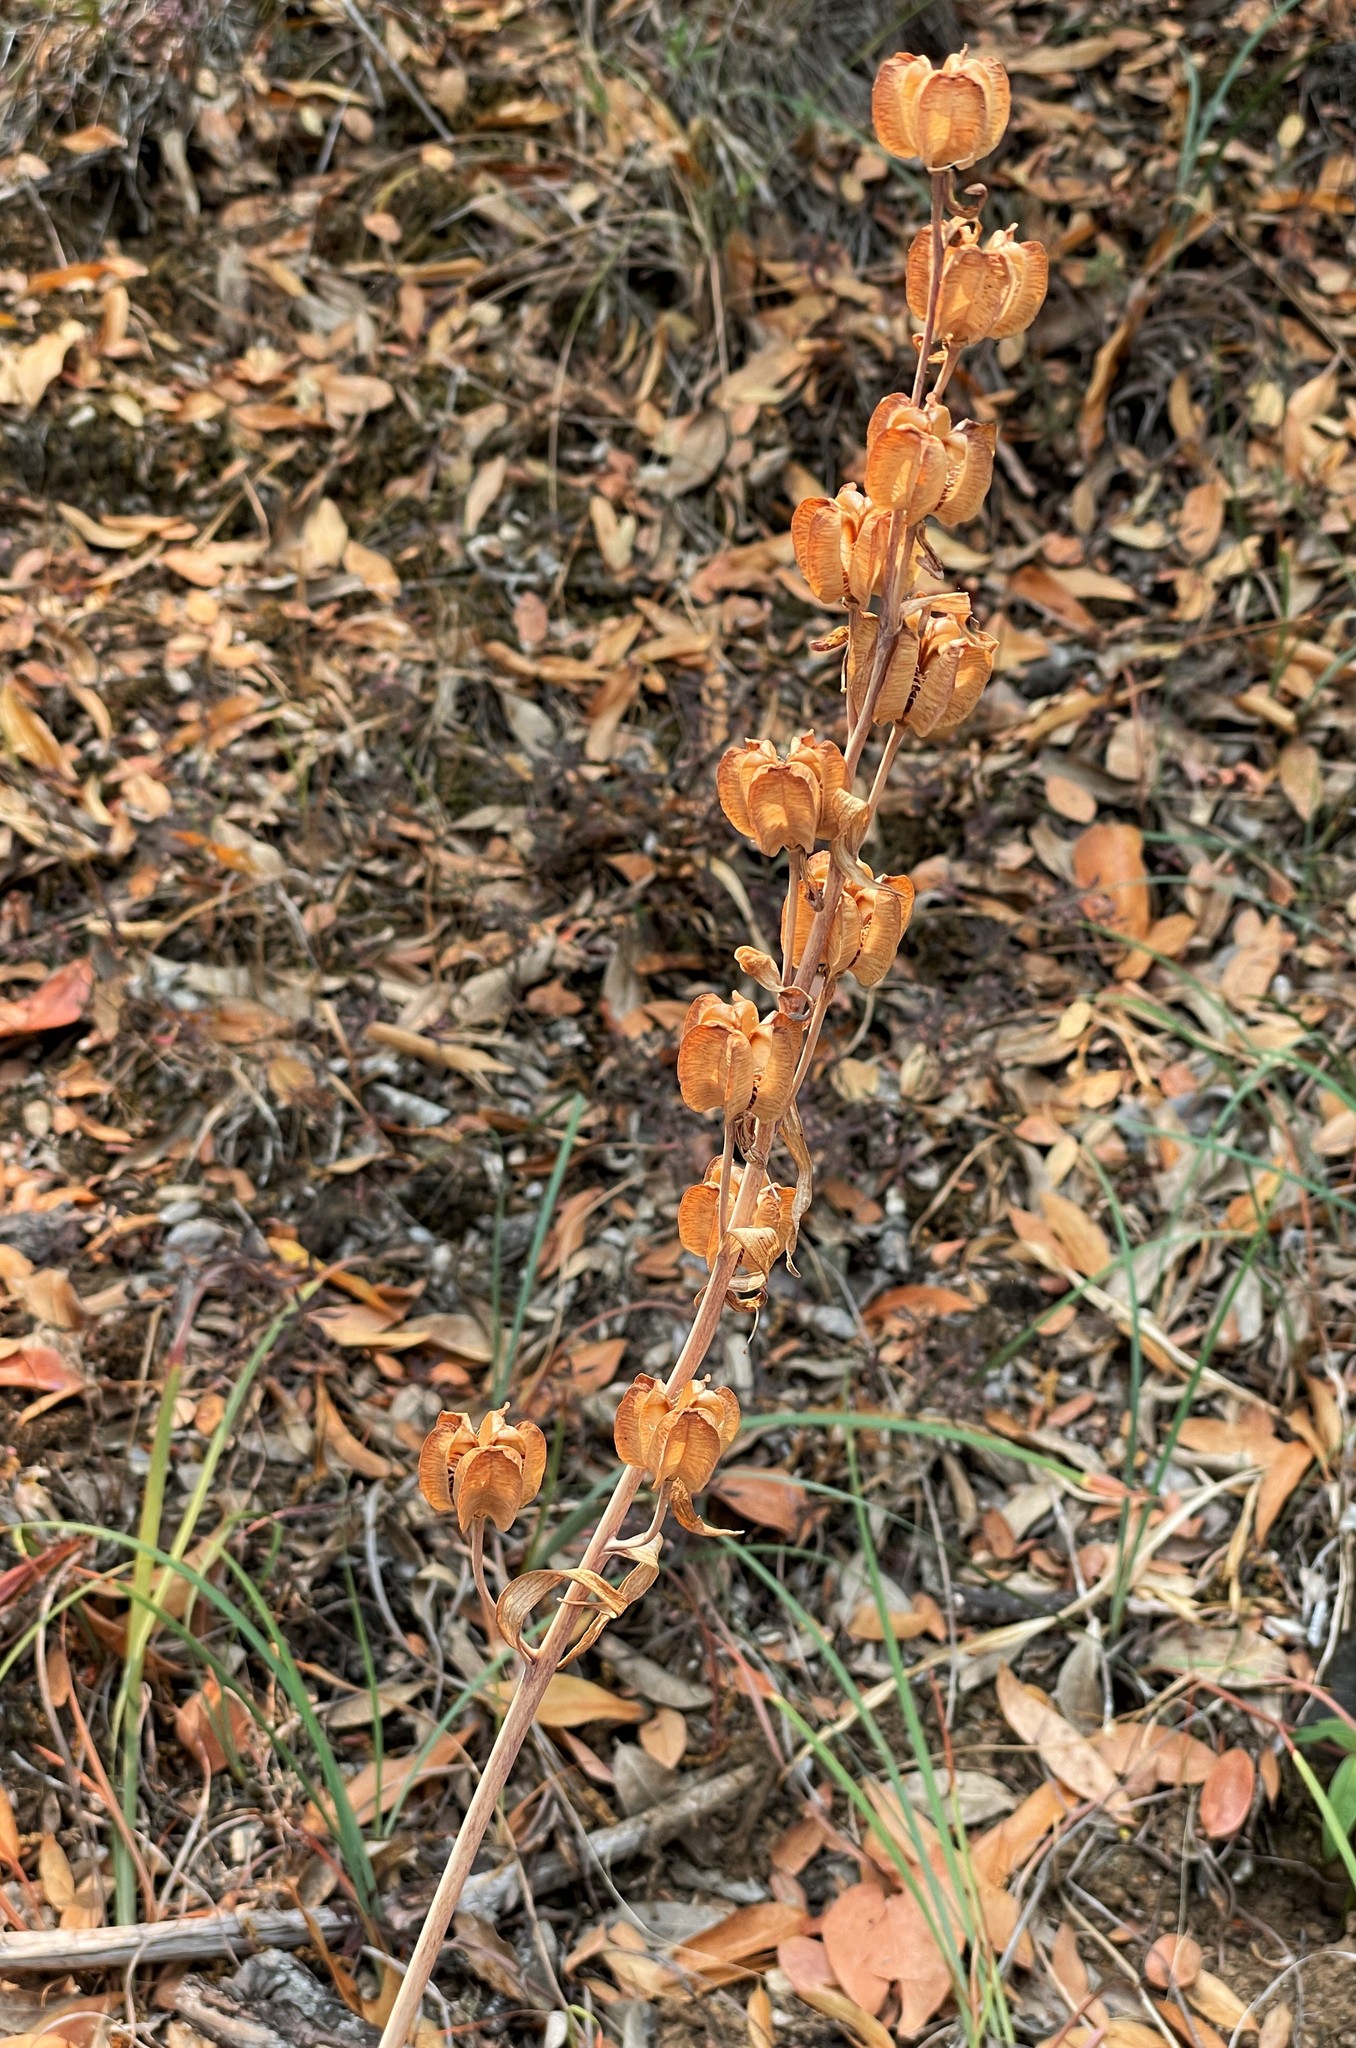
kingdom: Plantae
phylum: Tracheophyta
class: Liliopsida
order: Liliales
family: Liliaceae
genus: Fritillaria
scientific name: Fritillaria affinis
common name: Ojai fritillary
